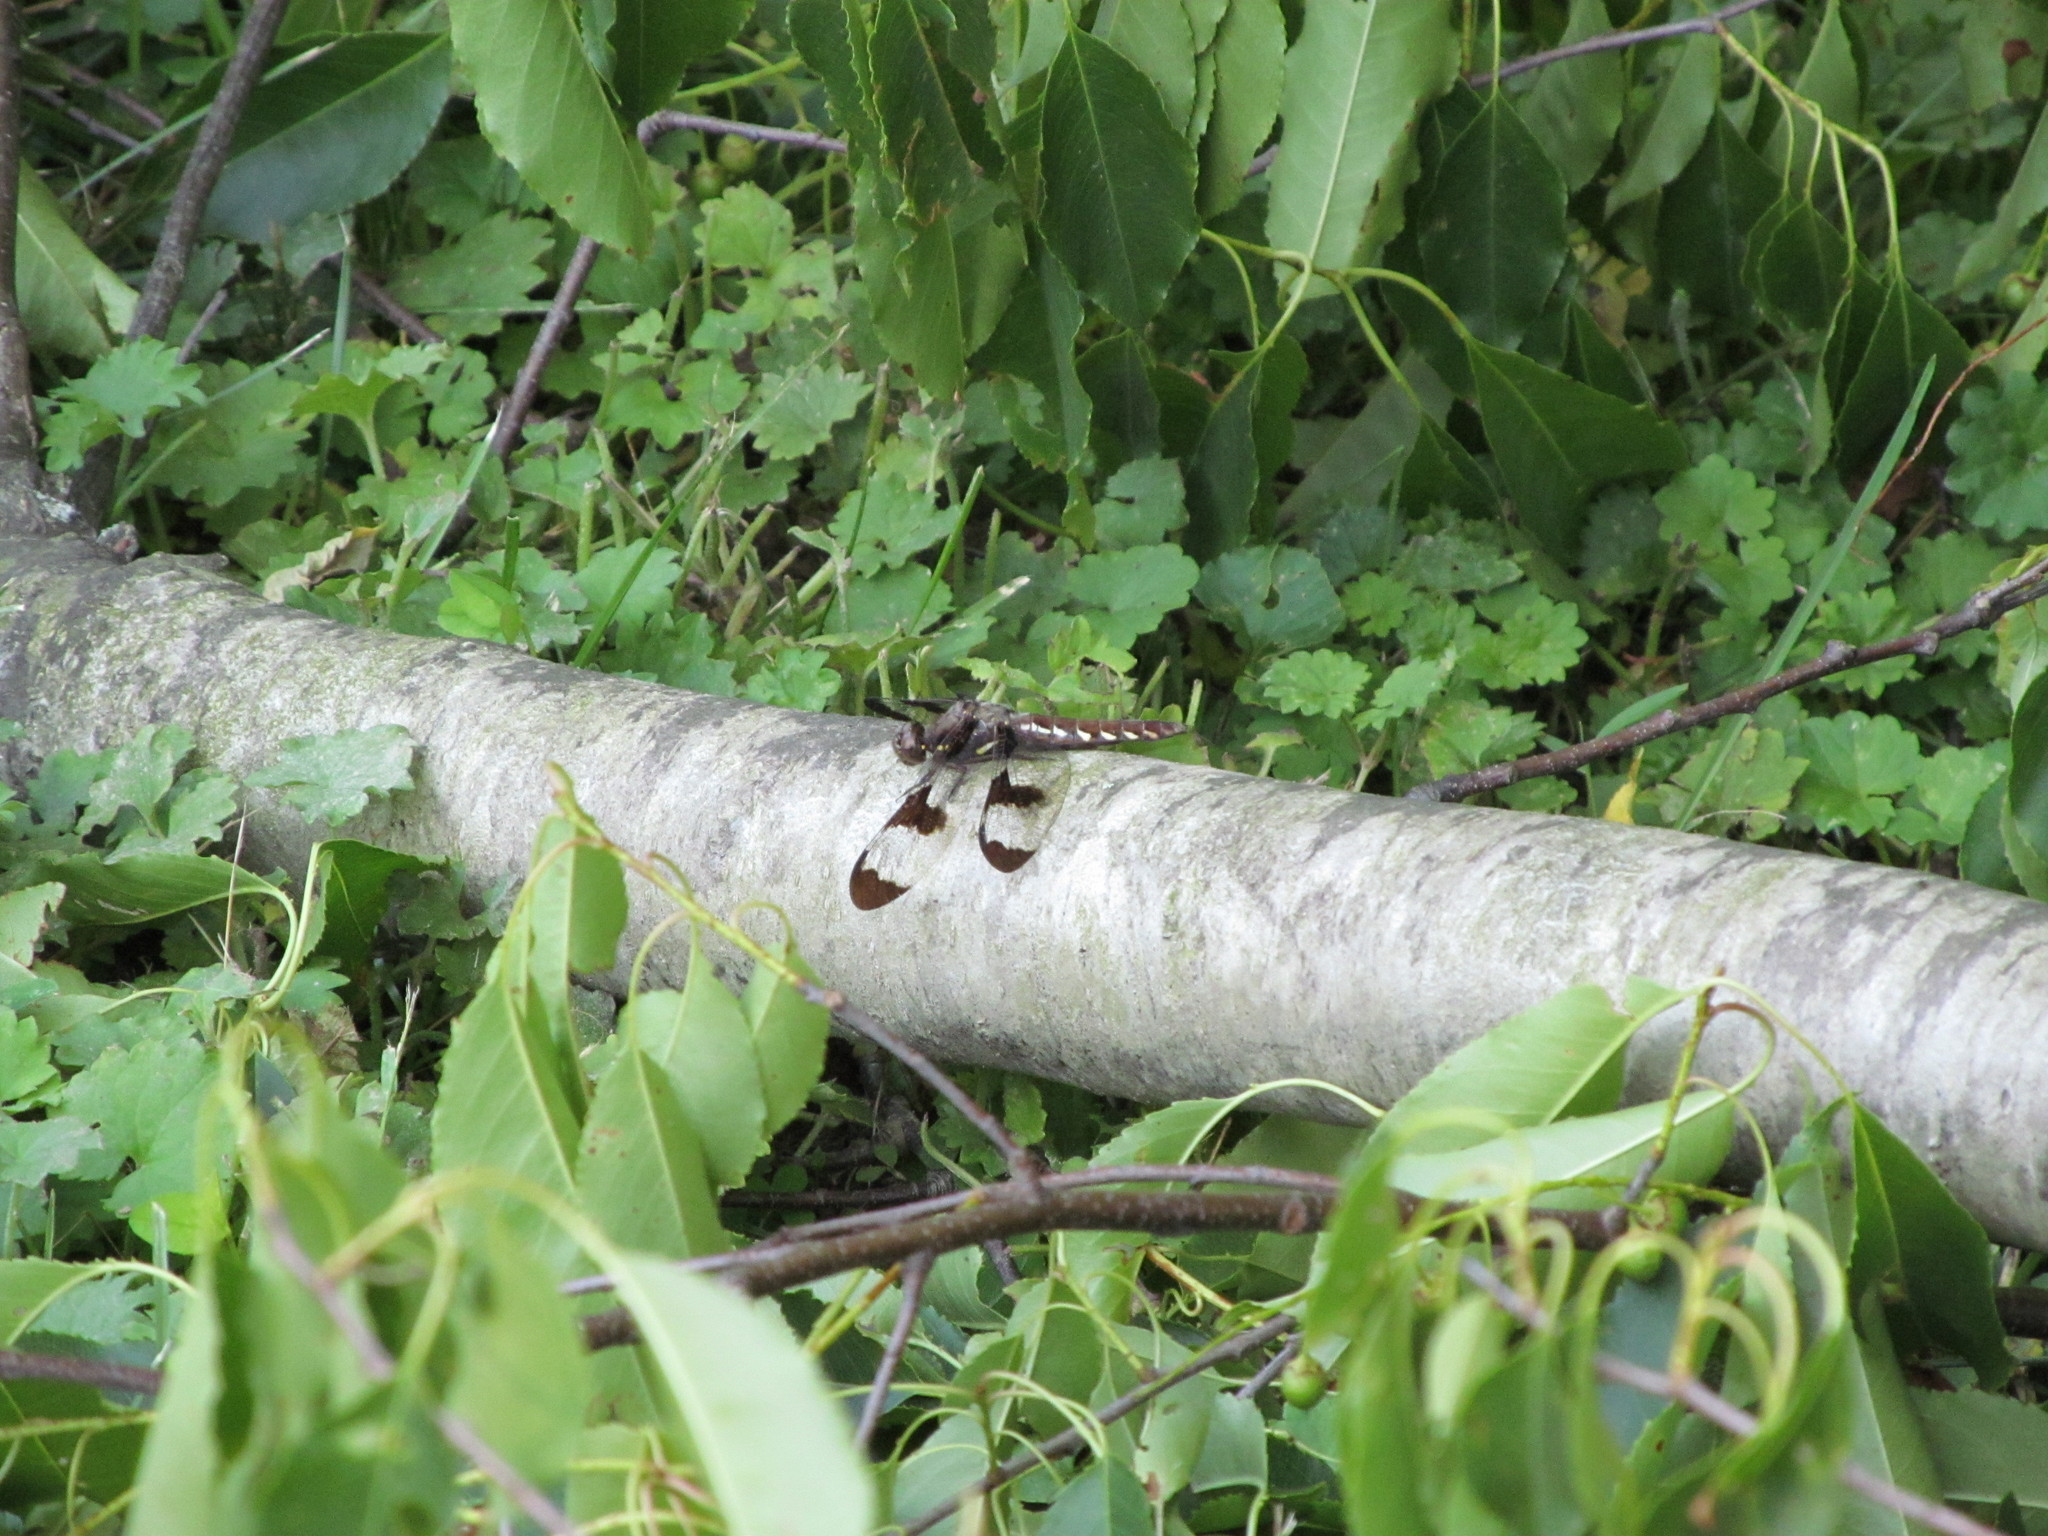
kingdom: Animalia
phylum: Arthropoda
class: Insecta
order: Odonata
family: Libellulidae
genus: Plathemis
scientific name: Plathemis lydia
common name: Common whitetail
